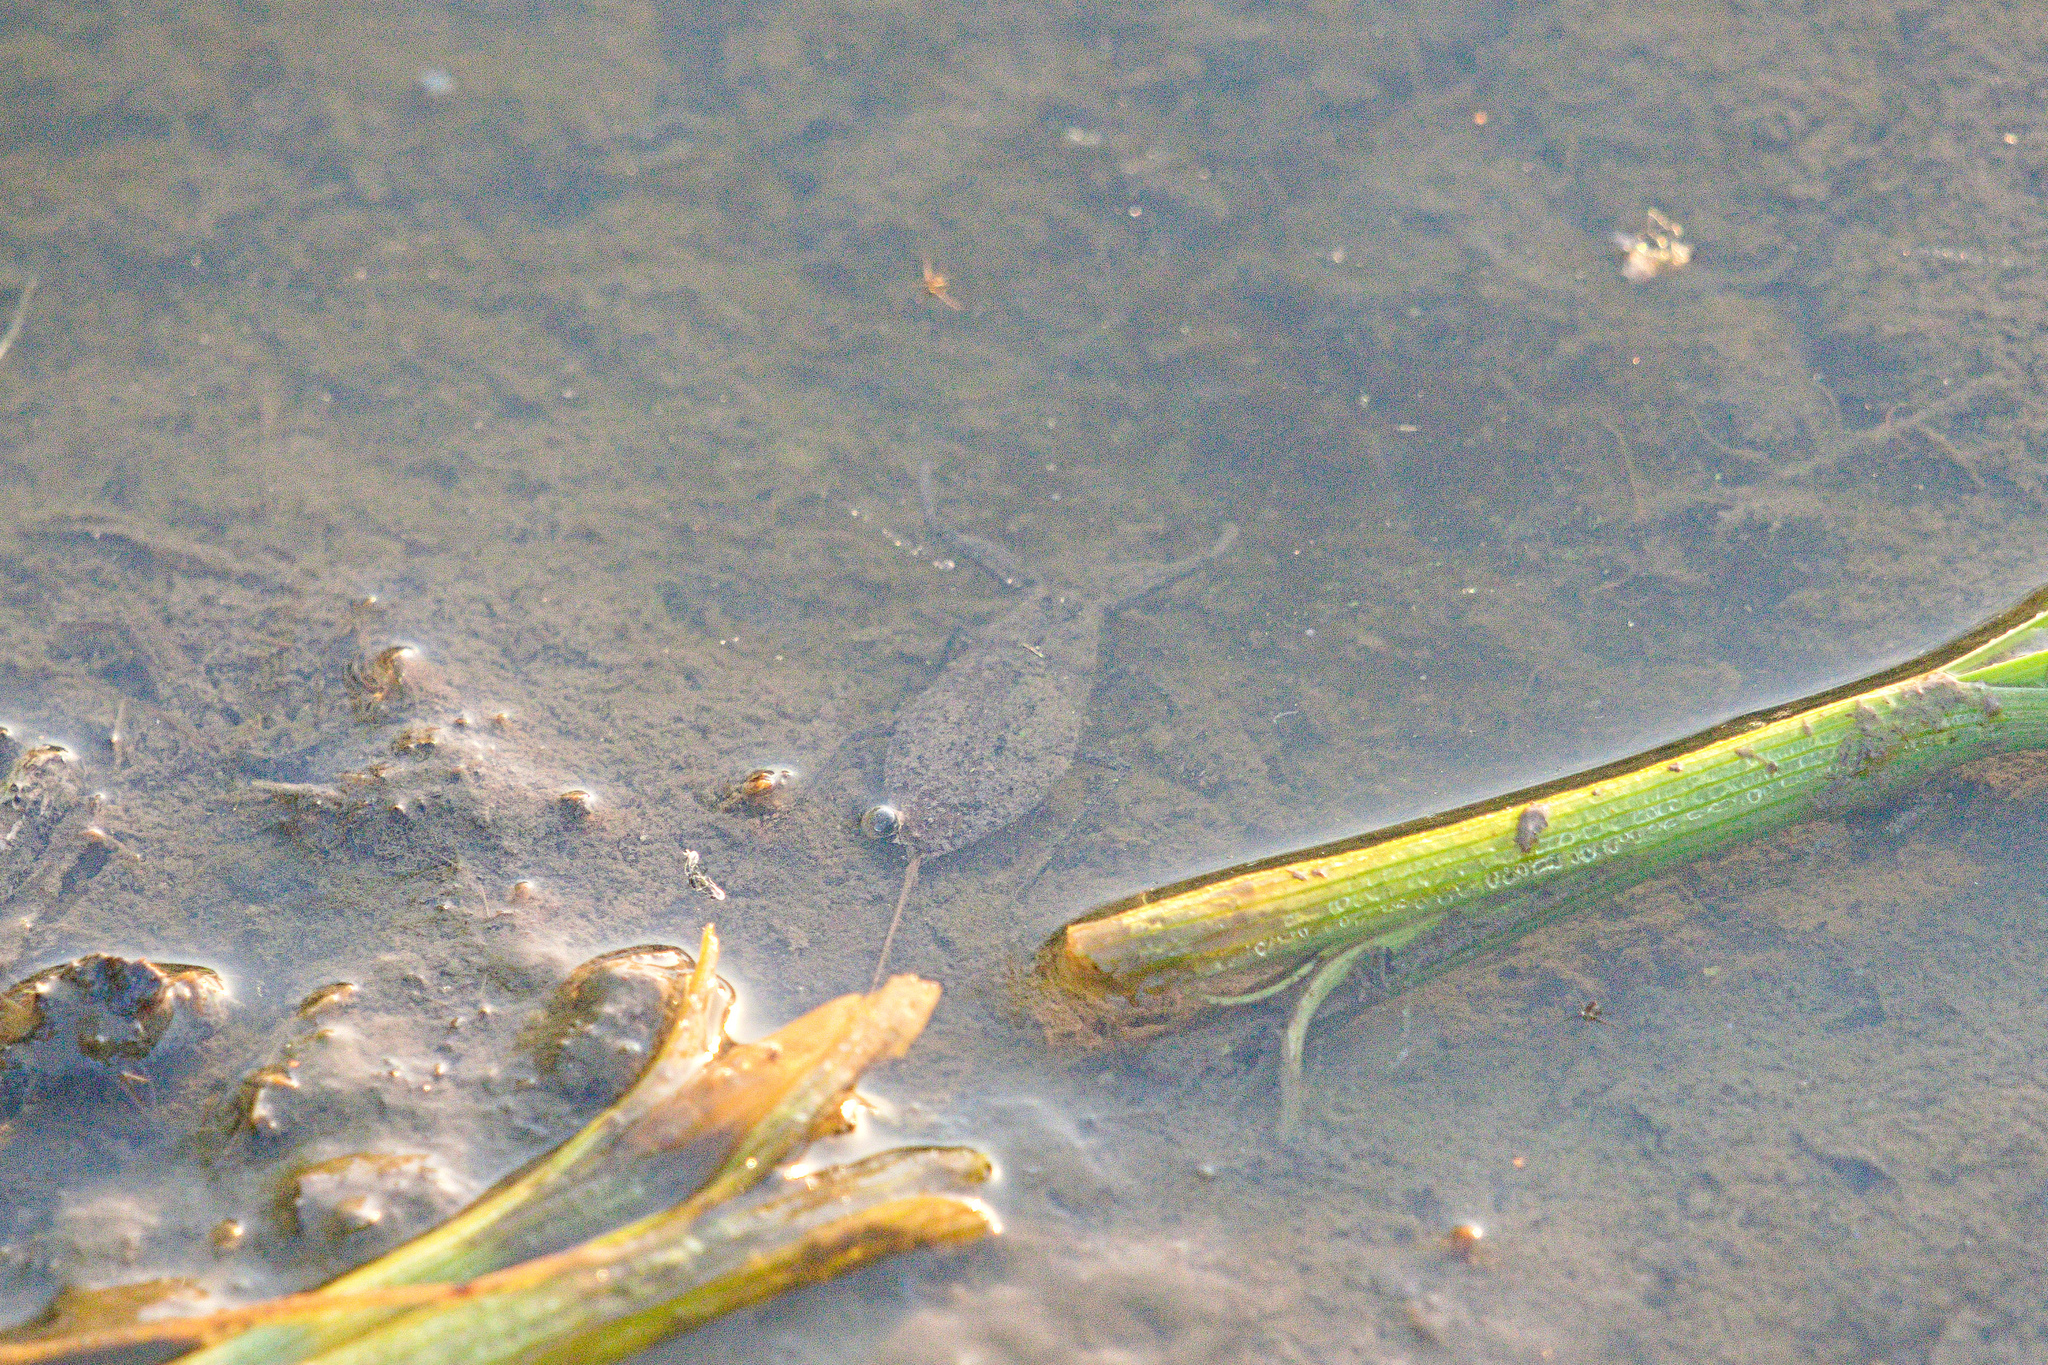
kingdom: Animalia
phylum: Arthropoda
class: Insecta
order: Hemiptera
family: Nepidae
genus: Nepa
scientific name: Nepa cinerea
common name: Water scorpion
